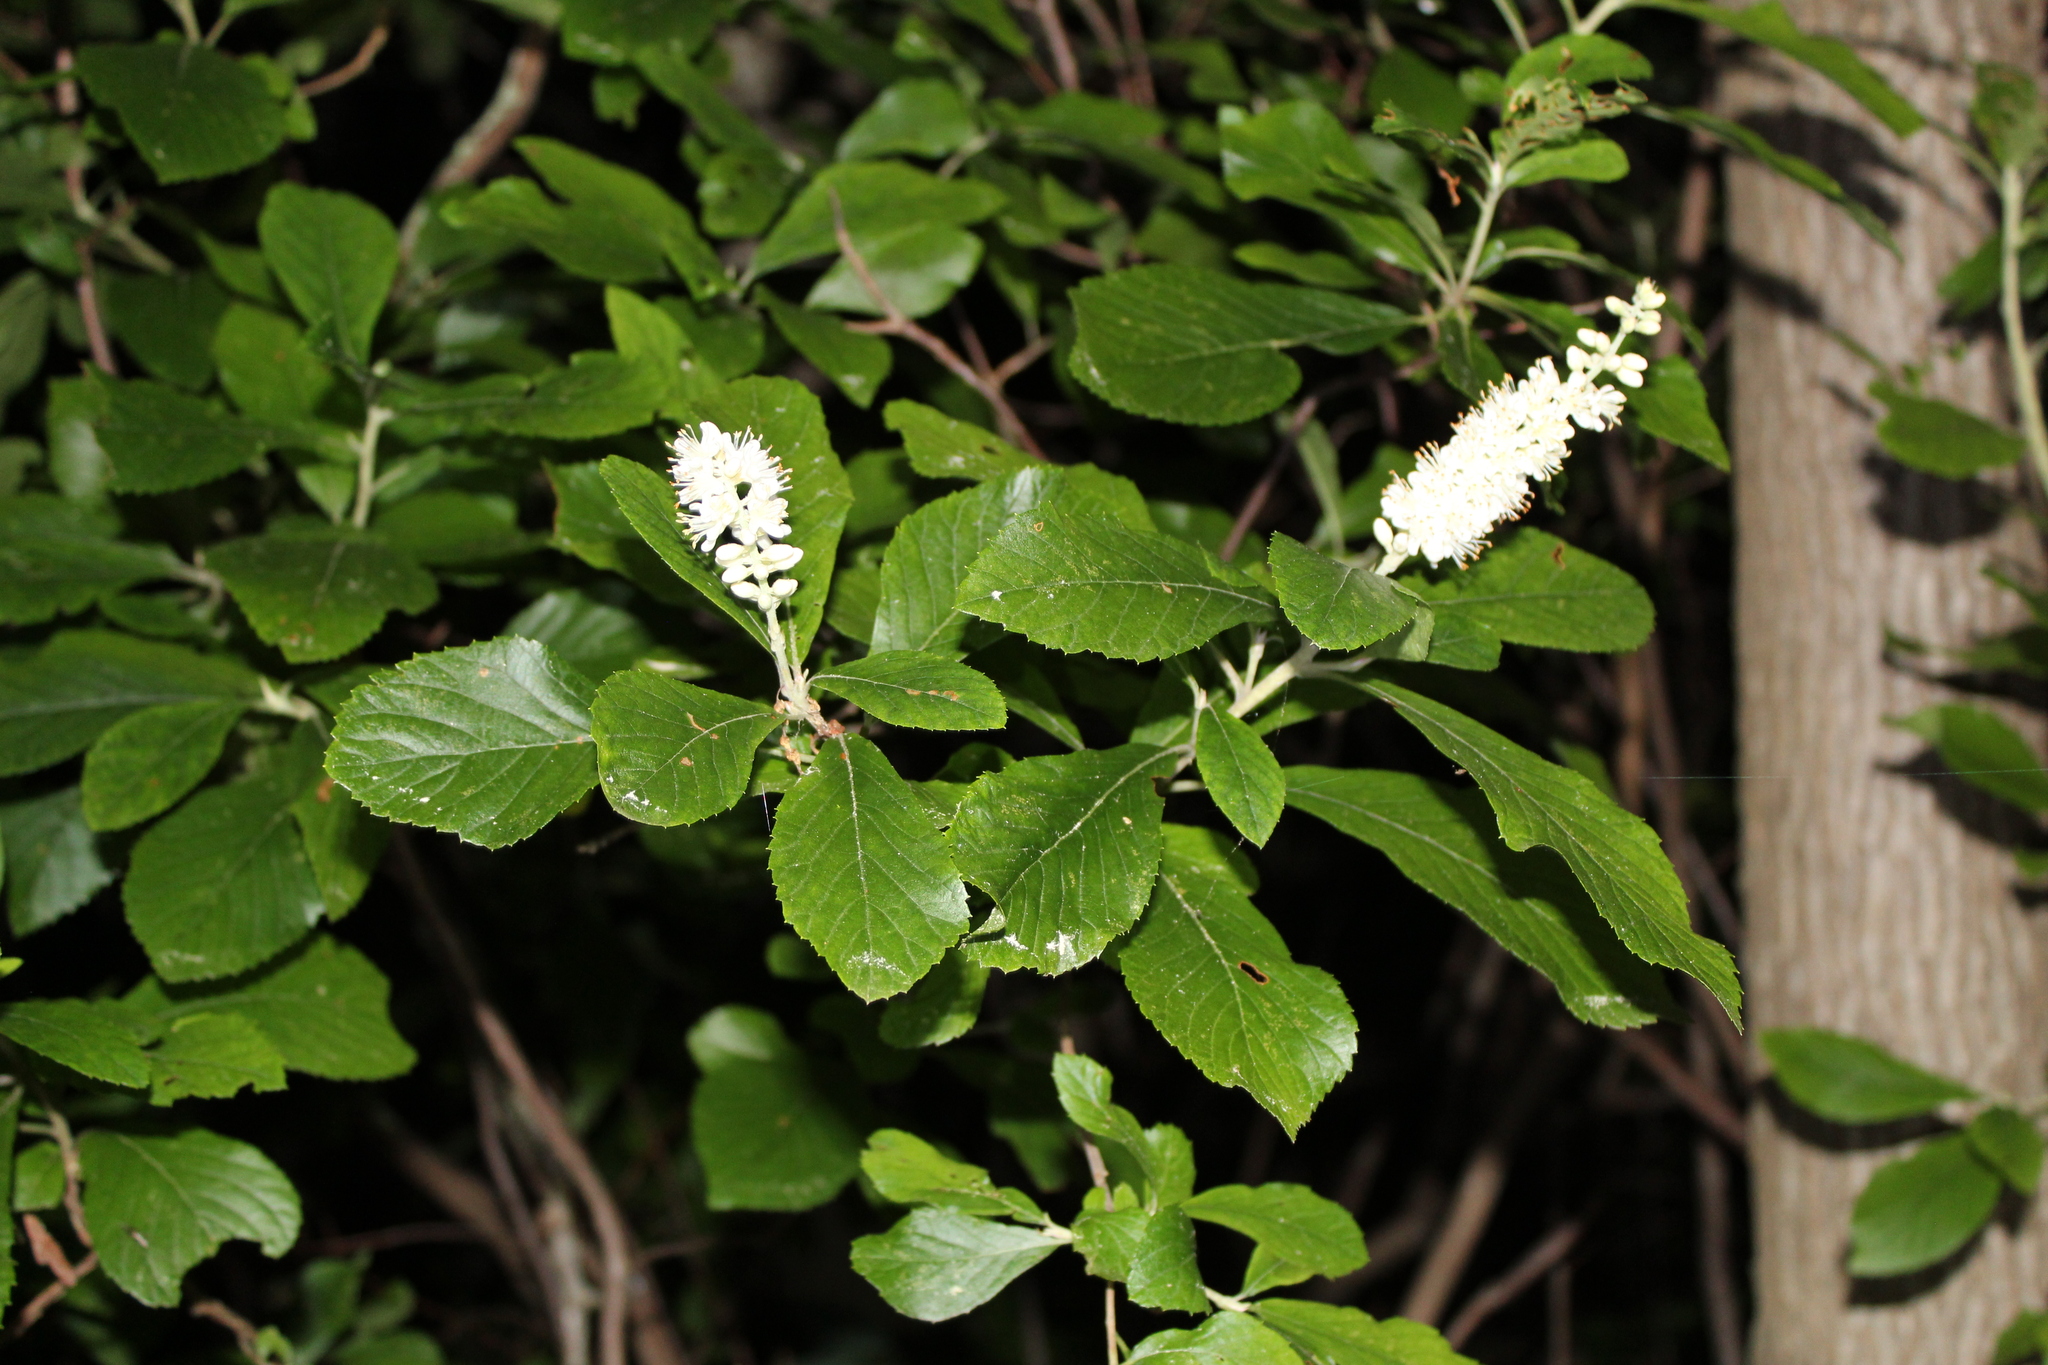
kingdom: Plantae
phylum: Tracheophyta
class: Magnoliopsida
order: Ericales
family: Clethraceae
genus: Clethra
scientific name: Clethra alnifolia
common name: Sweet pepperbush
